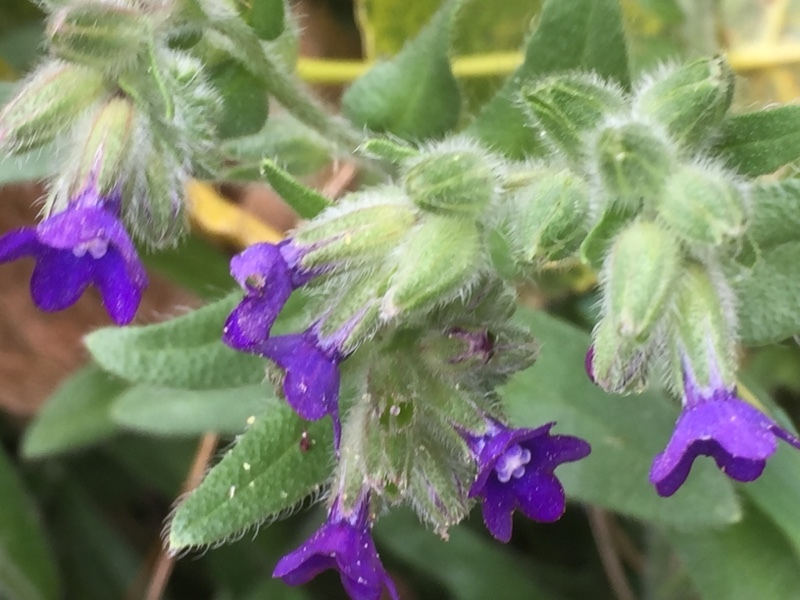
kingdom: Plantae
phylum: Tracheophyta
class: Magnoliopsida
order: Boraginales
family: Boraginaceae
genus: Anchusa
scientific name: Anchusa officinalis
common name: Alkanet
